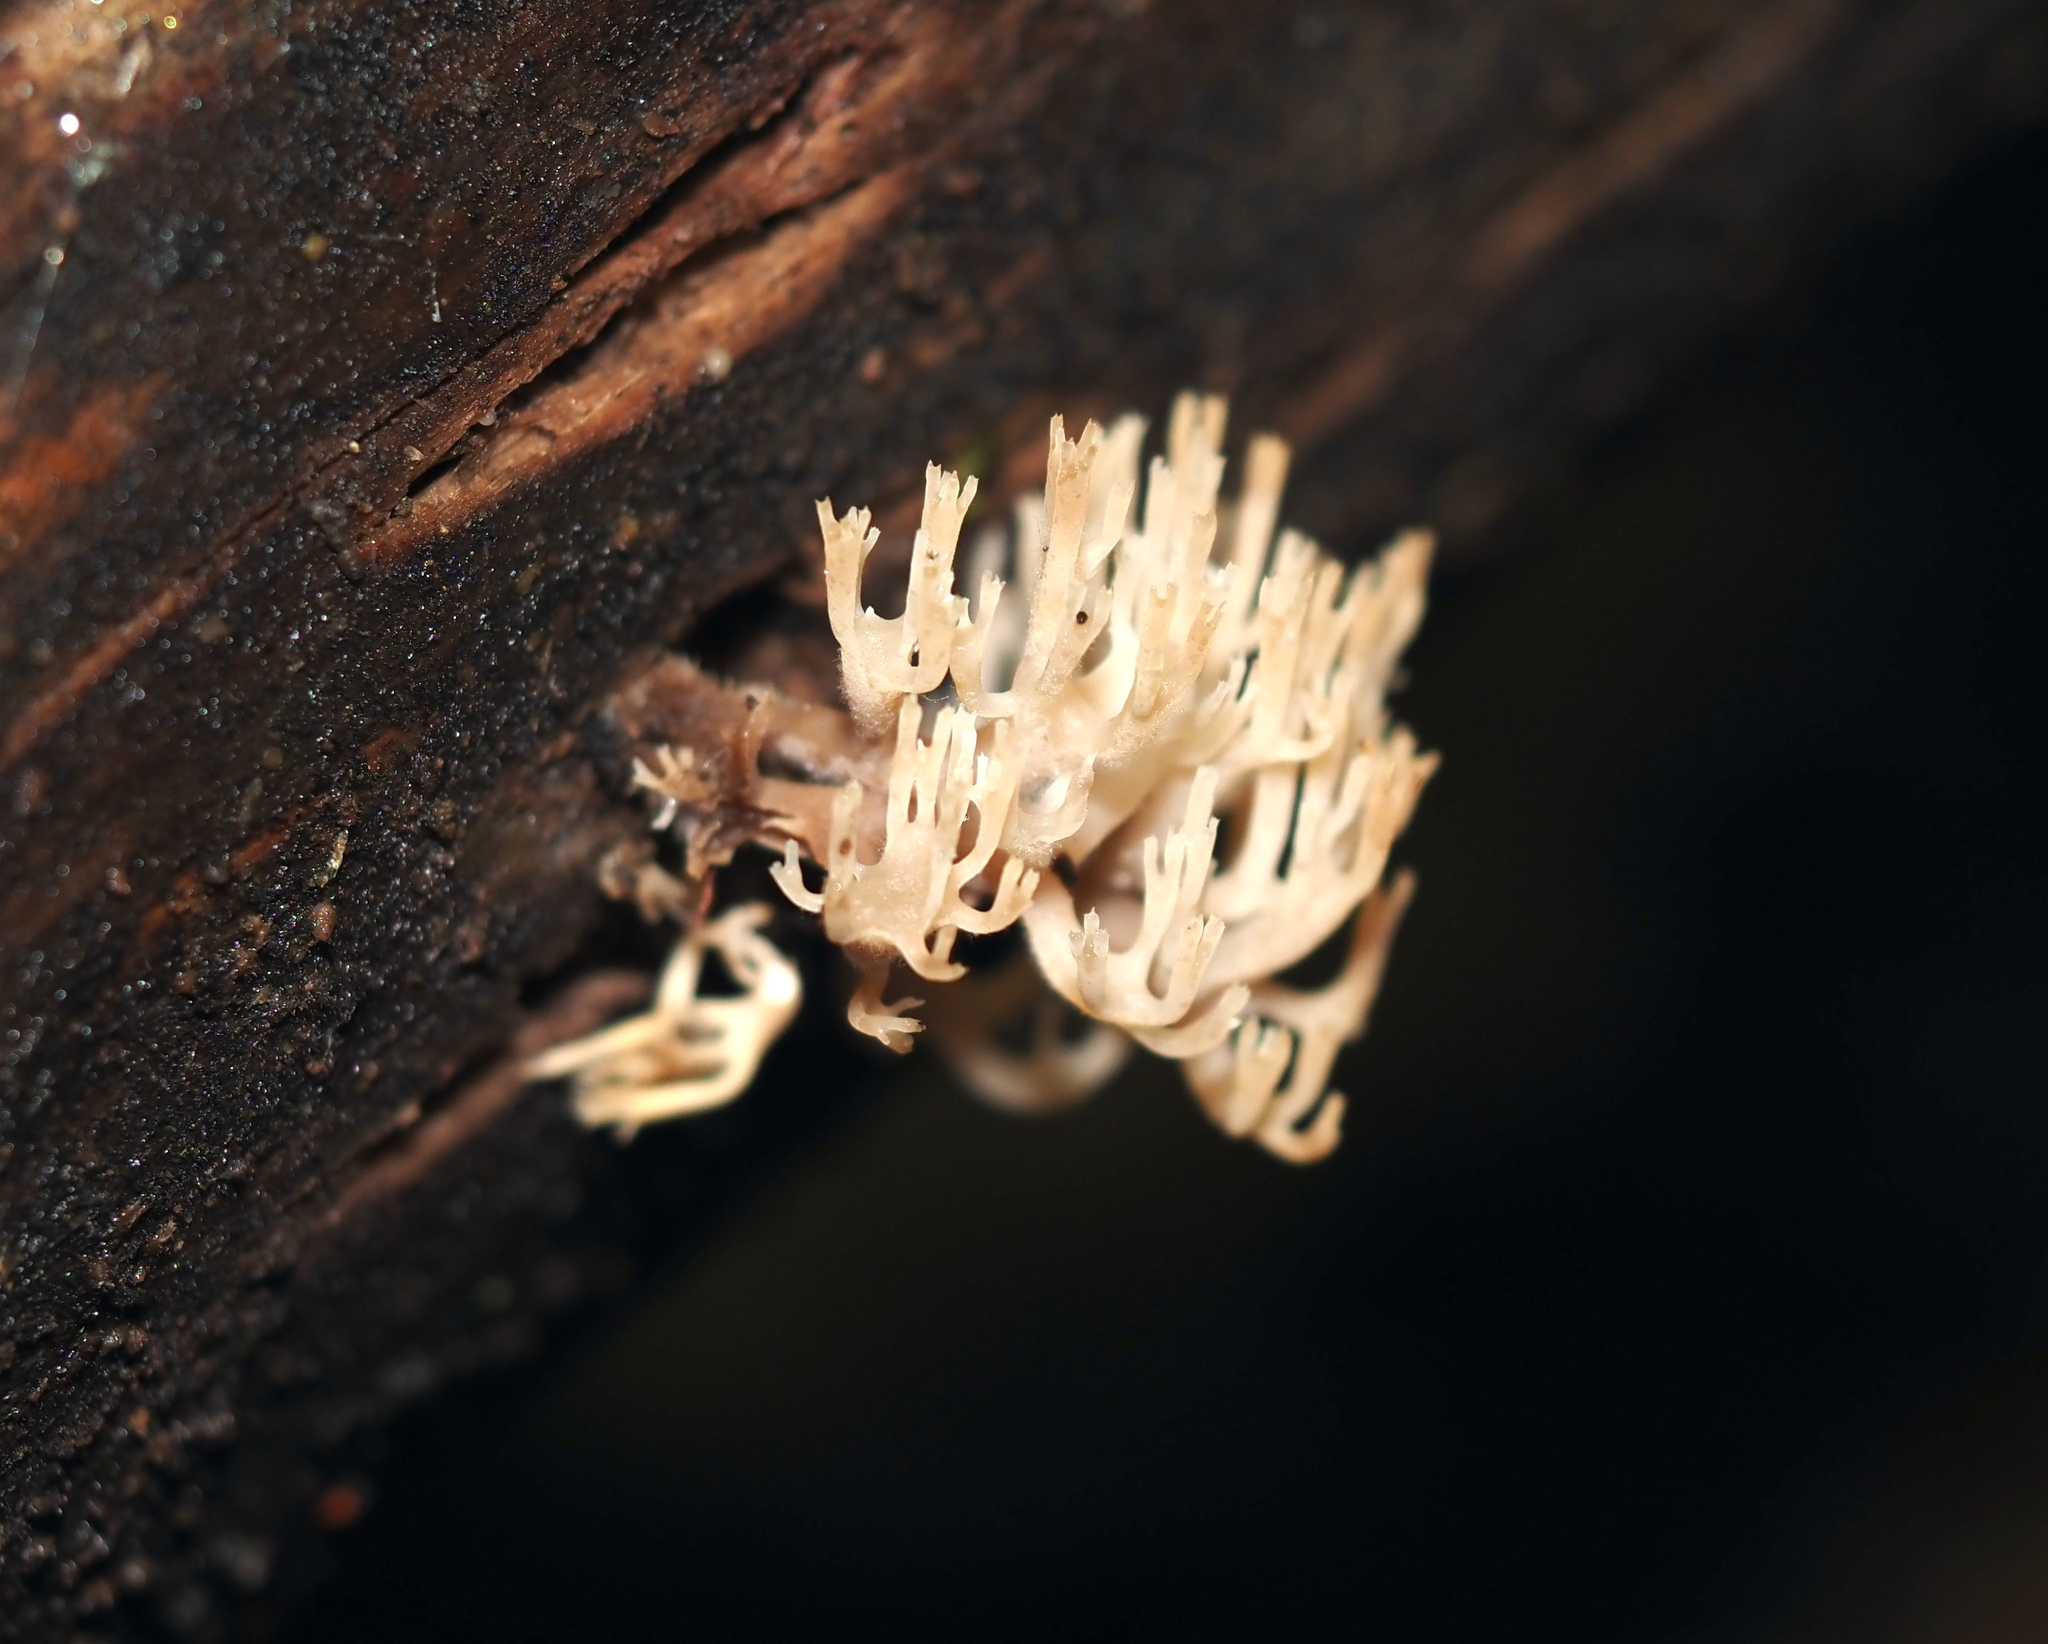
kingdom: Fungi
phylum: Basidiomycota
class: Agaricomycetes
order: Russulales
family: Auriscalpiaceae
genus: Artomyces
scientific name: Artomyces pyxidatus
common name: Crown-tipped coral fungus
